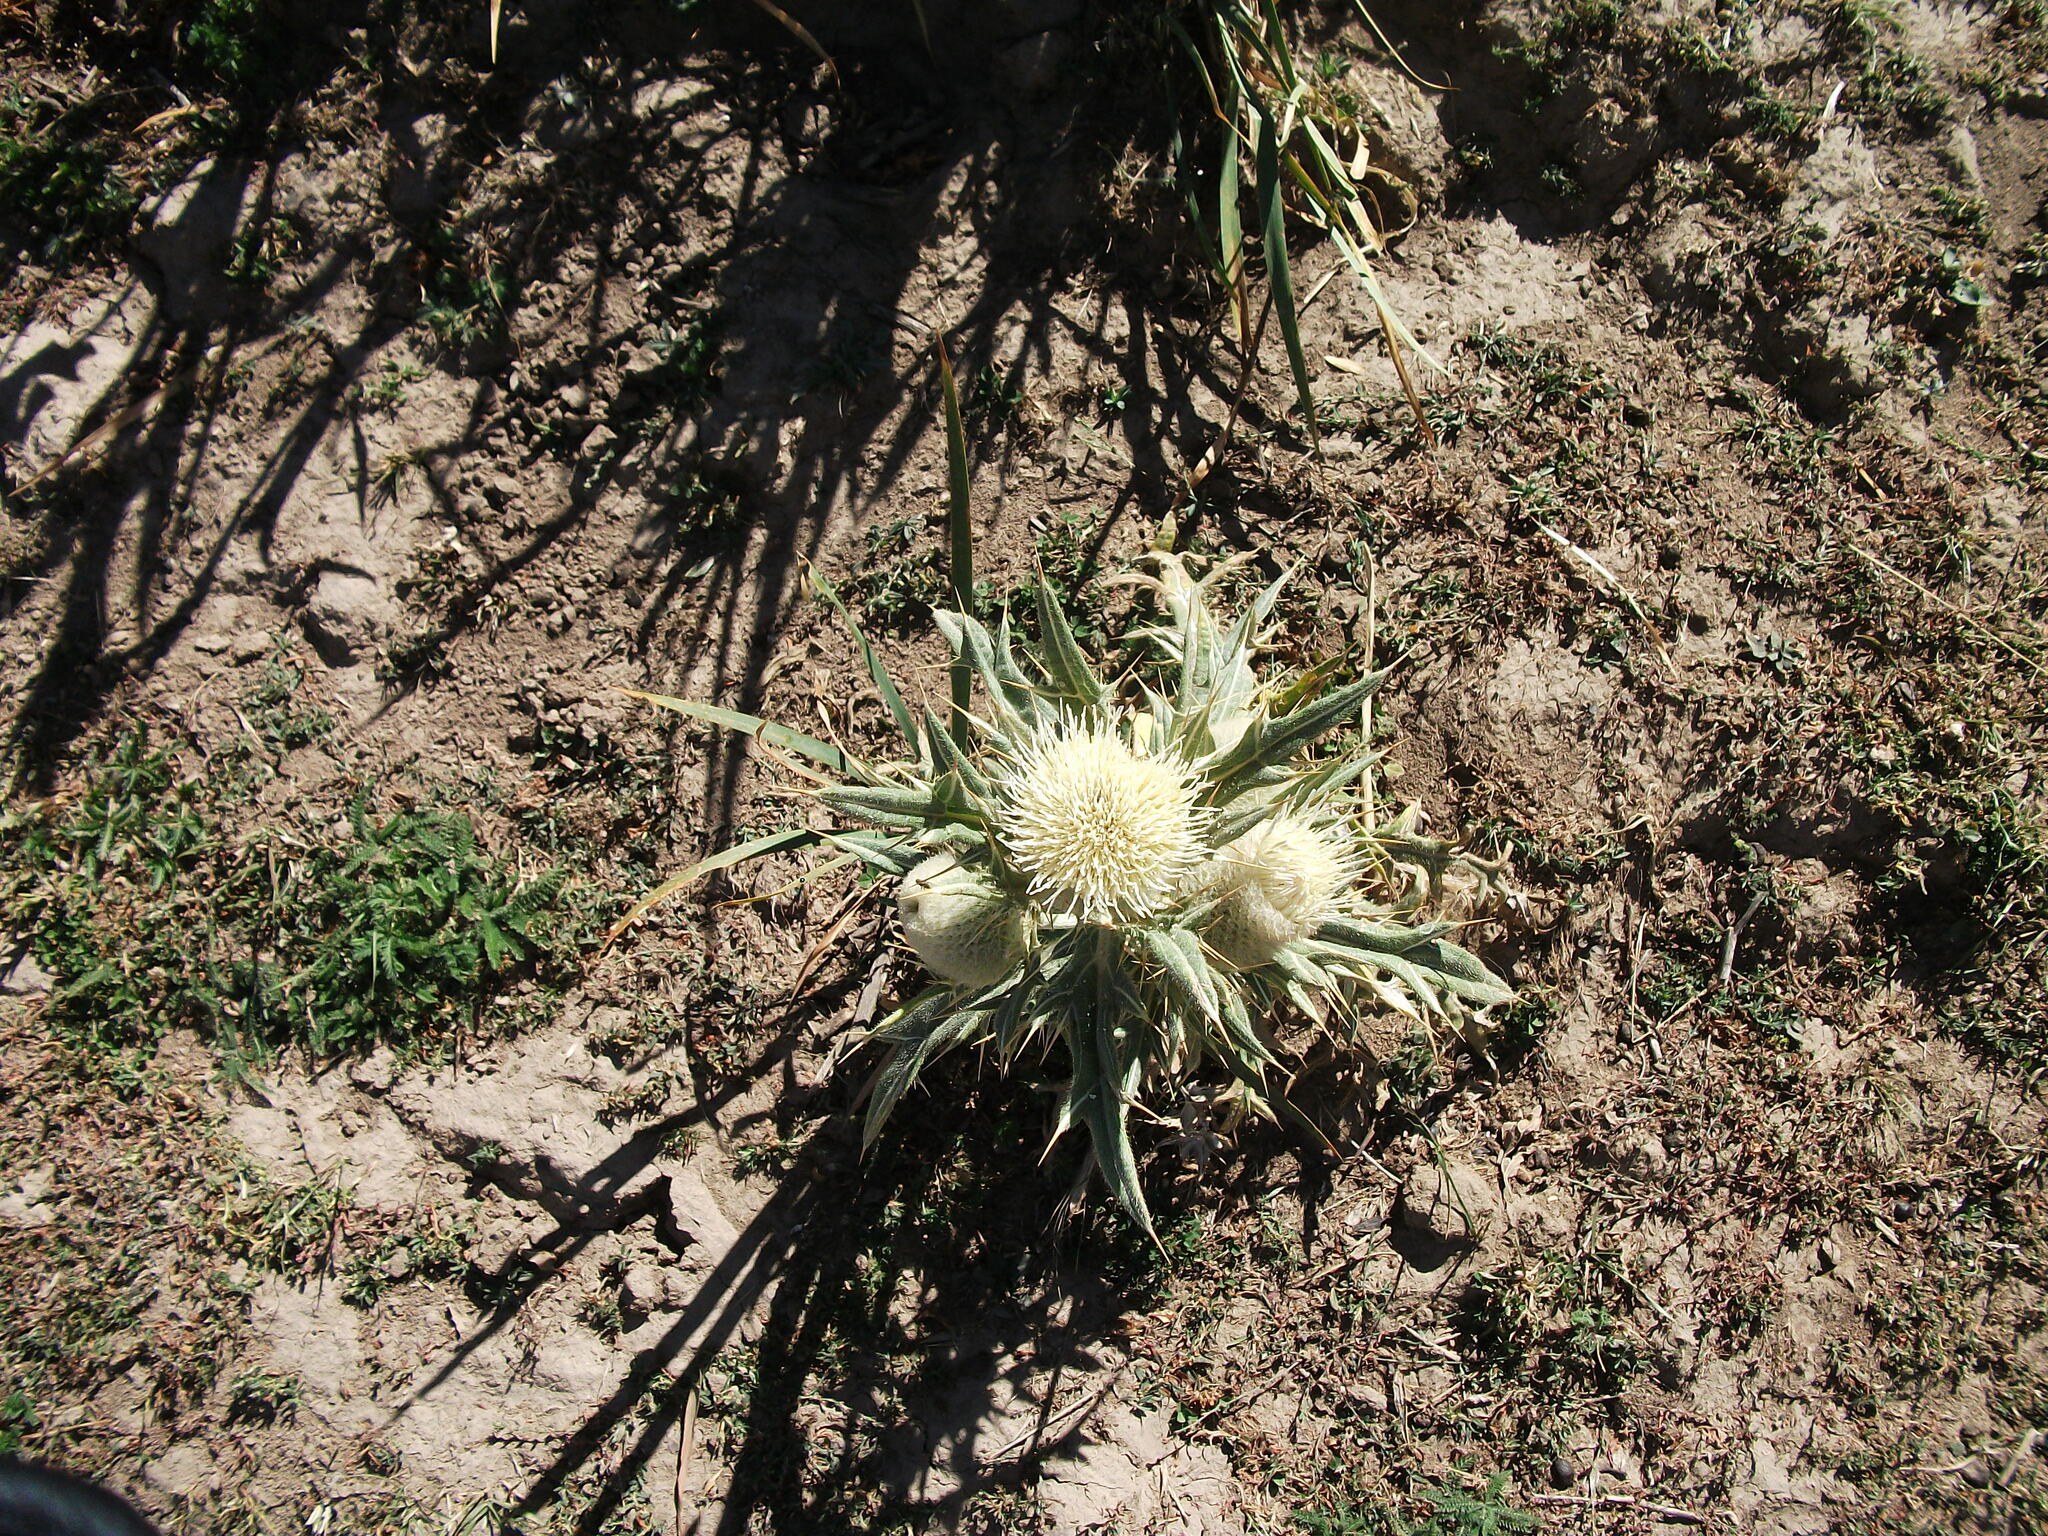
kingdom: Plantae
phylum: Tracheophyta
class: Magnoliopsida
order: Asterales
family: Asteraceae
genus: Lophiolepis
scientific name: Lophiolepis turkestanica
